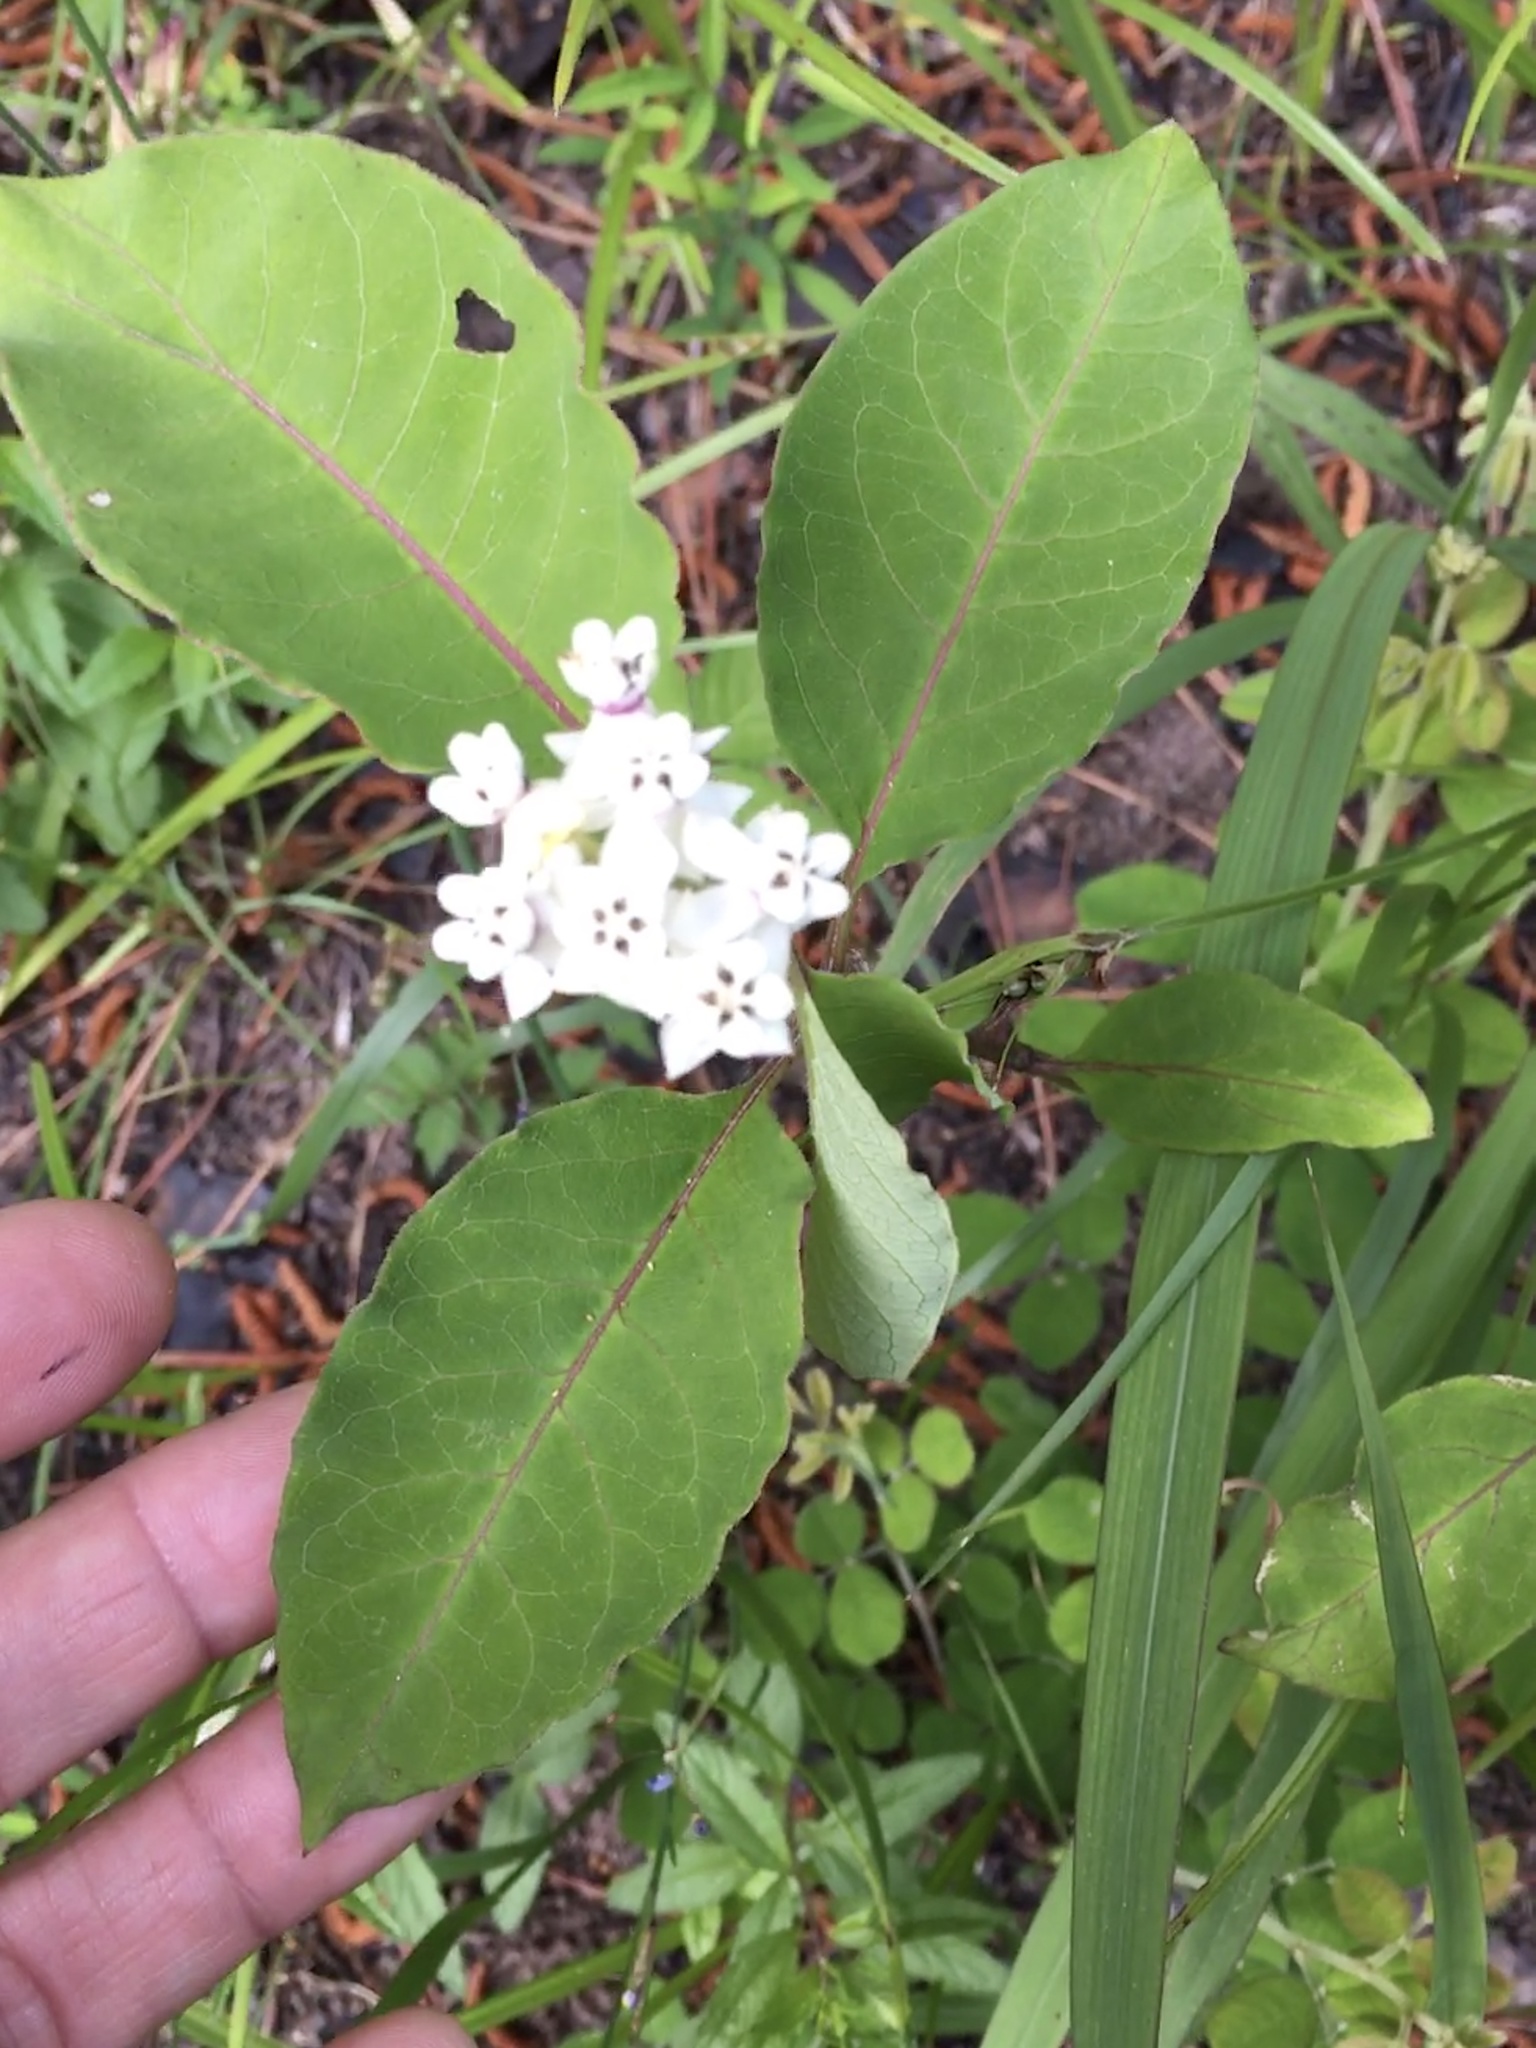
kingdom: Plantae
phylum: Tracheophyta
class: Magnoliopsida
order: Gentianales
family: Apocynaceae
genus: Asclepias
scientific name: Asclepias variegata
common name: Variegated milkweed
